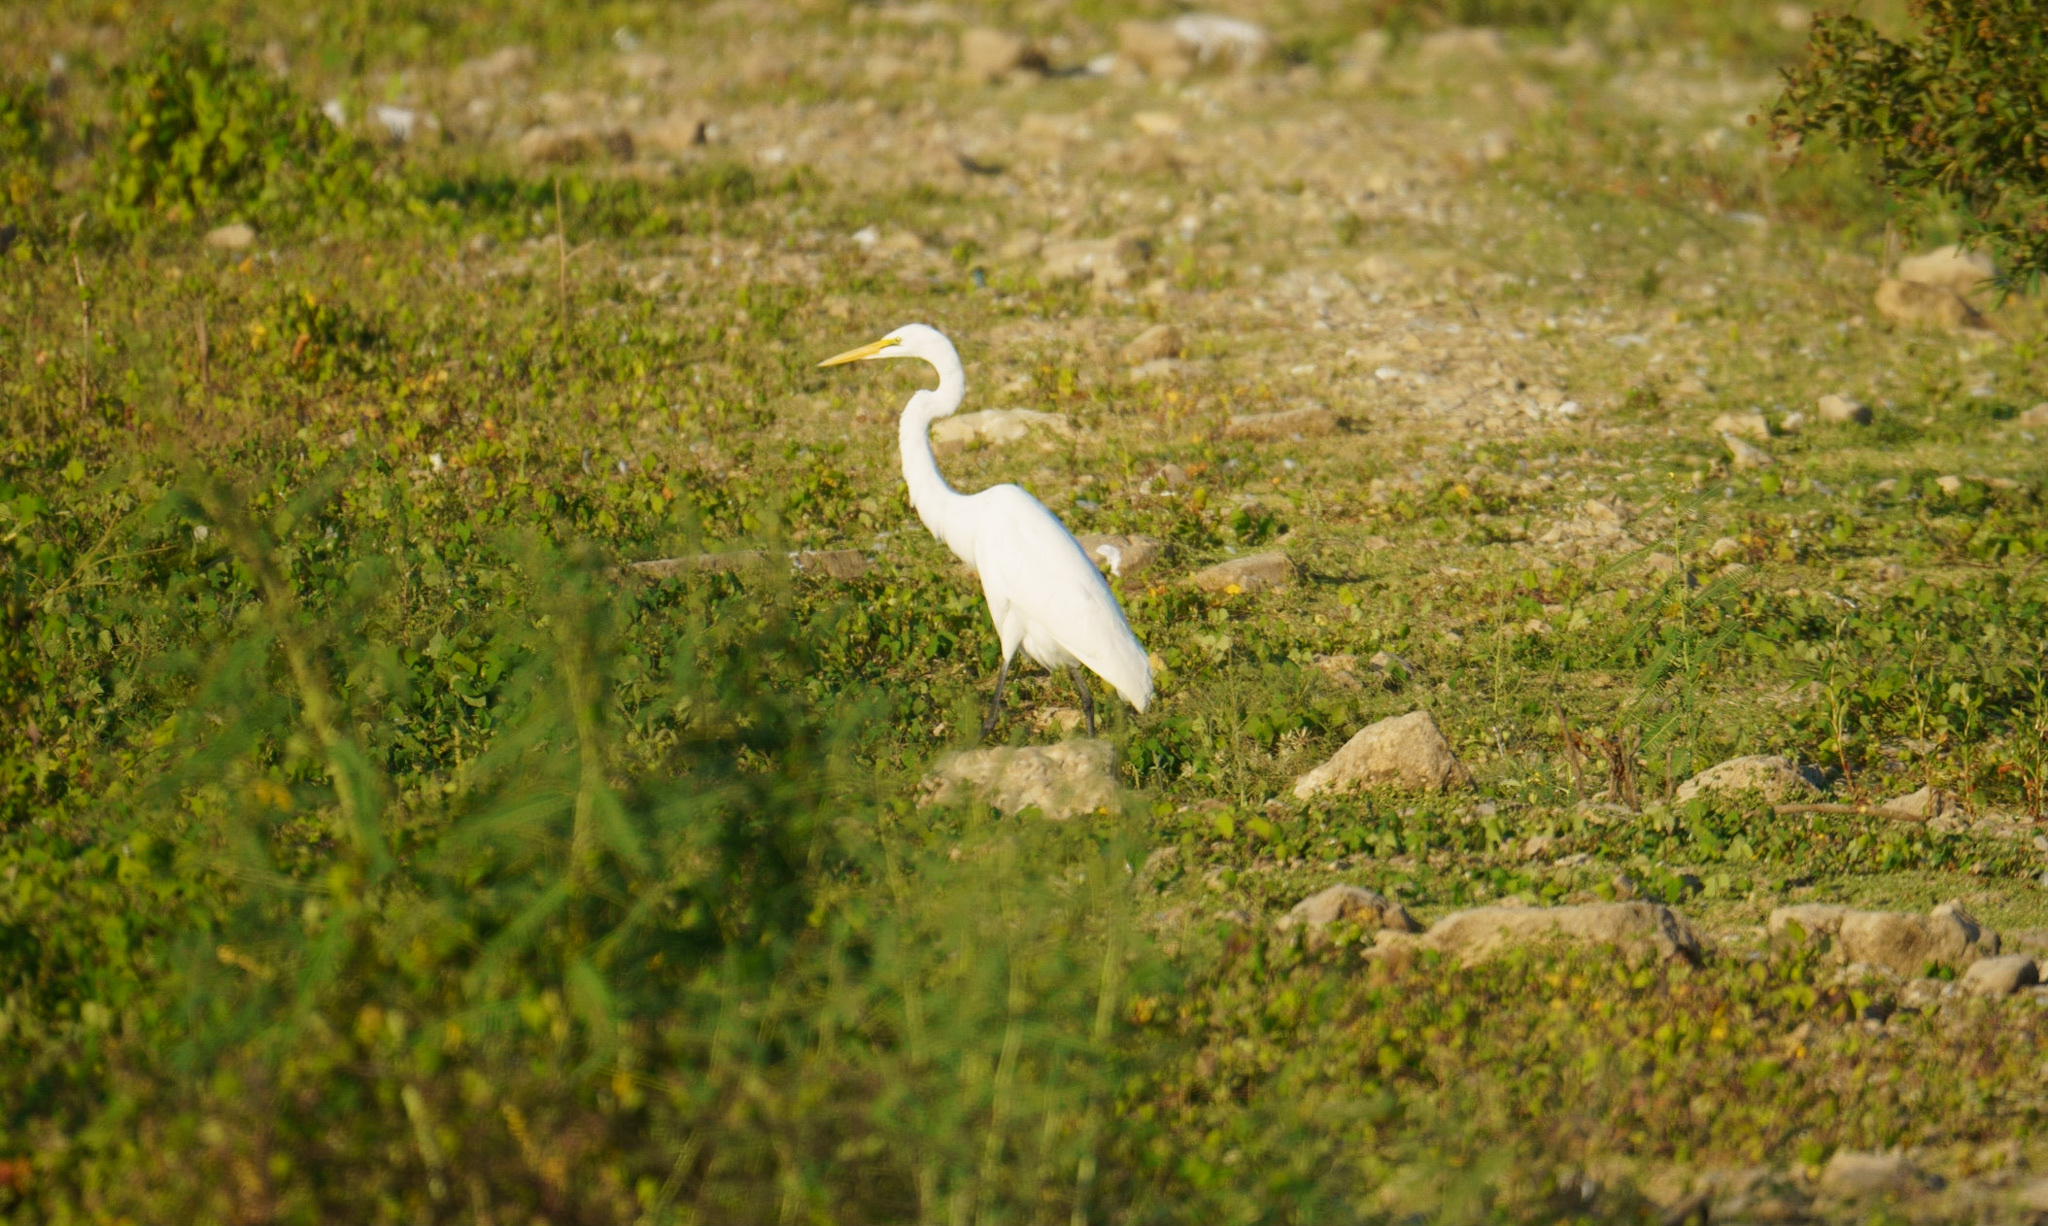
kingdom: Animalia
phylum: Chordata
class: Aves
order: Pelecaniformes
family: Ardeidae
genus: Ardea
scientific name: Ardea alba
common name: Great egret
